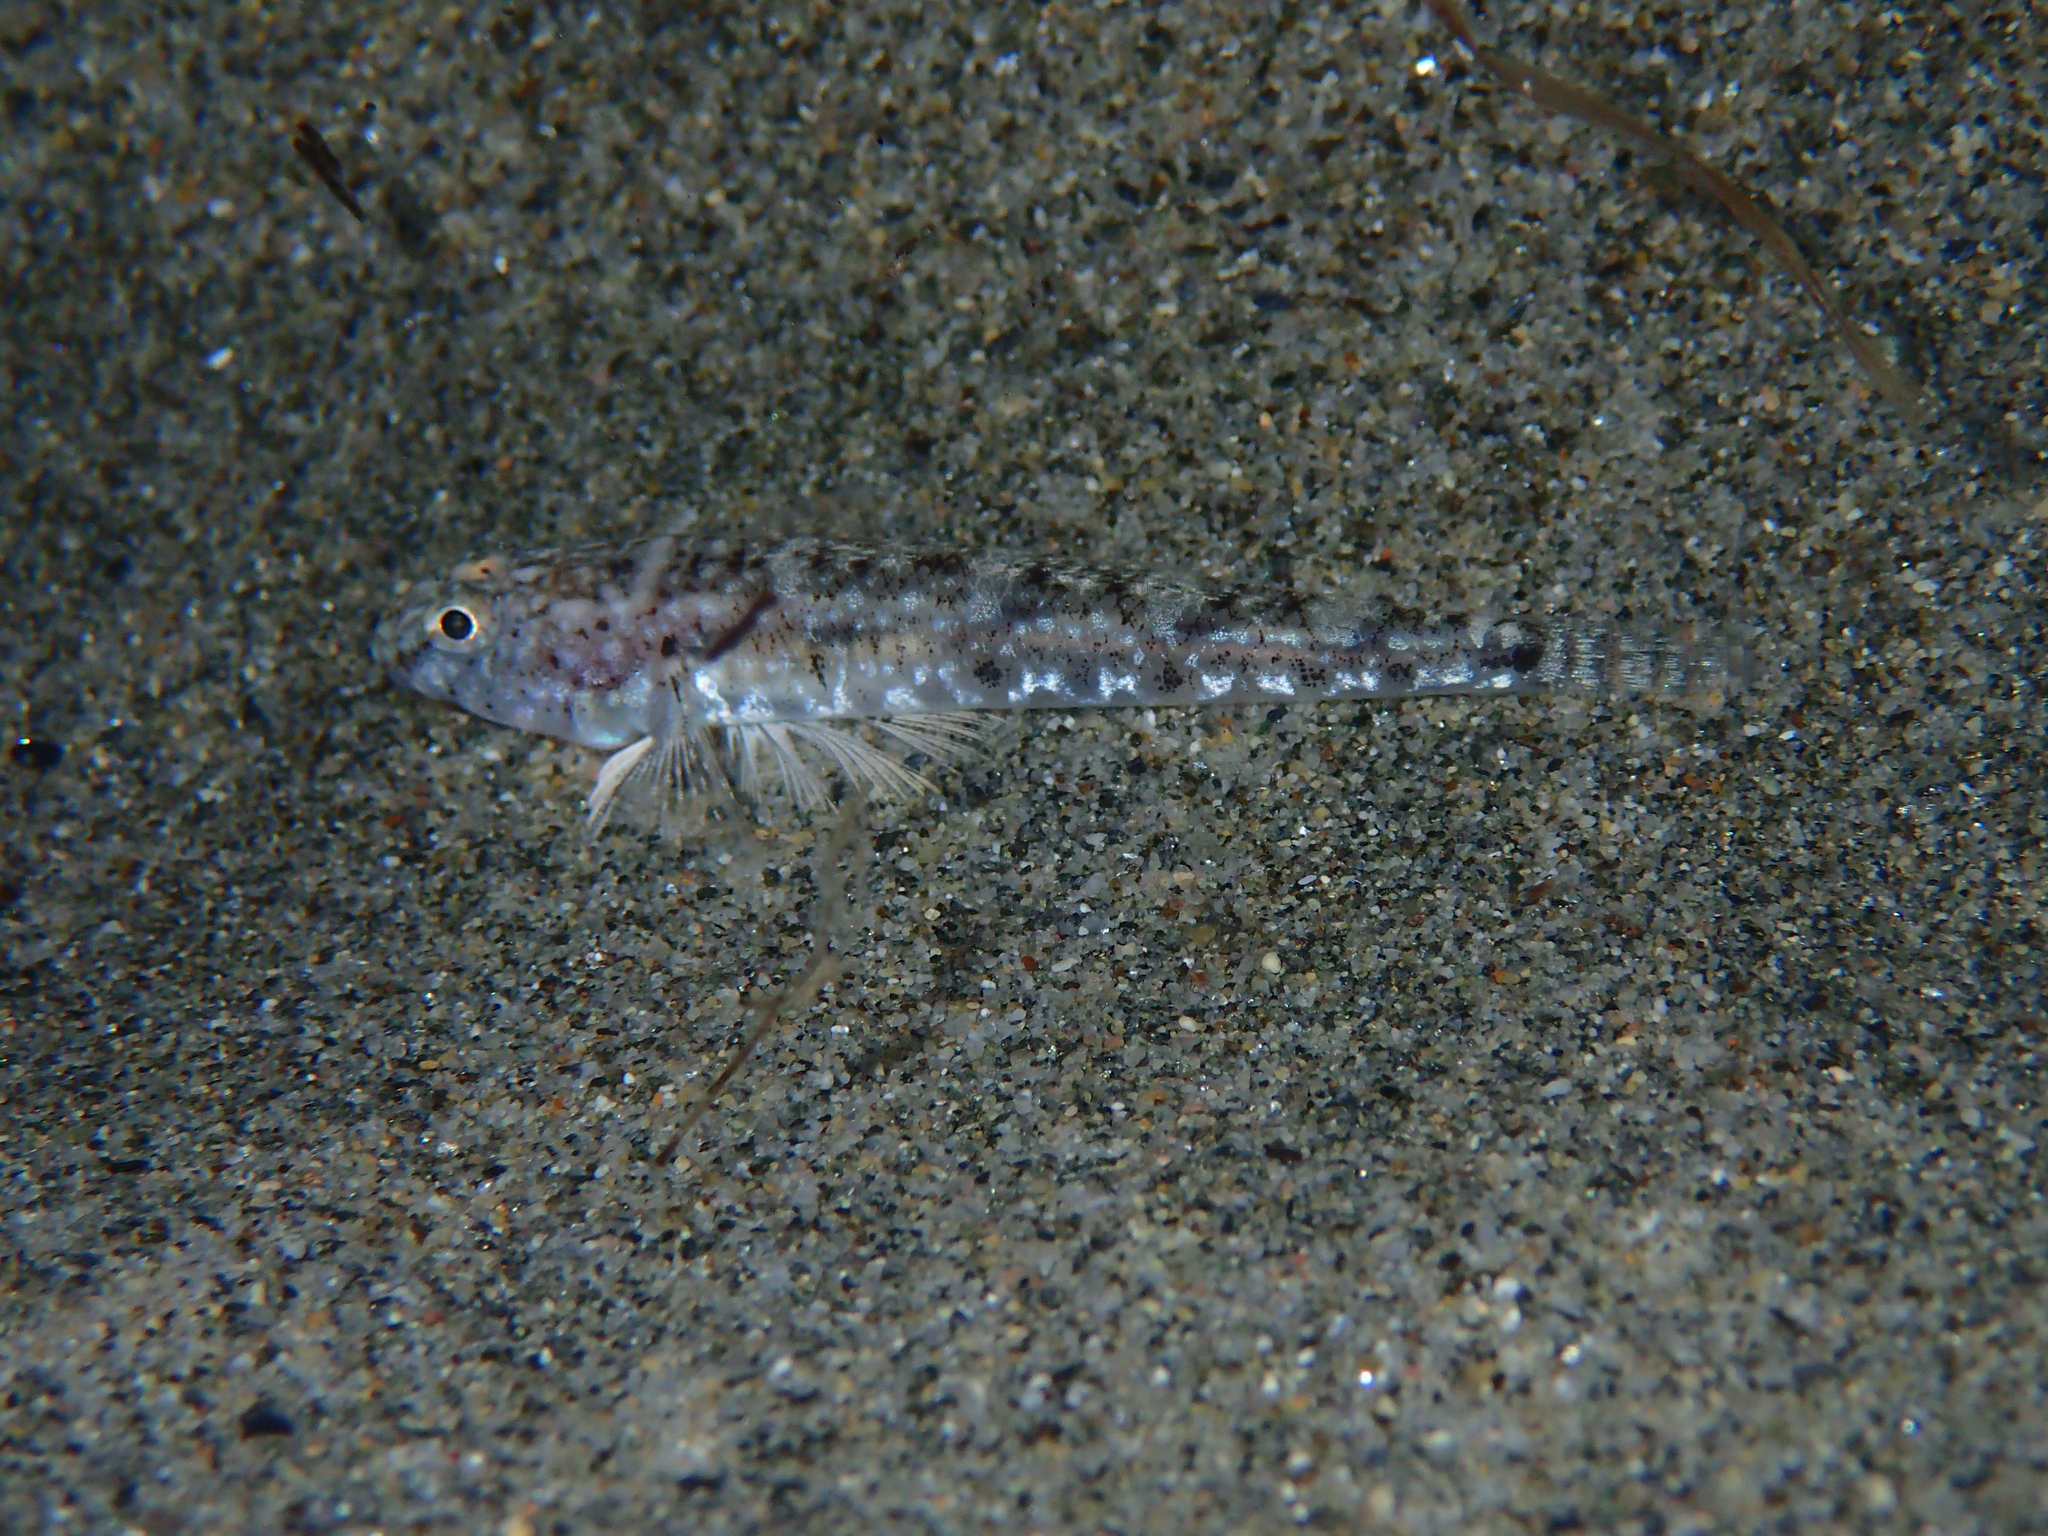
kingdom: Animalia
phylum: Chordata
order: Perciformes
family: Gobiidae
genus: Pomatoschistus
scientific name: Pomatoschistus marmoratus
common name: Marbled goby
